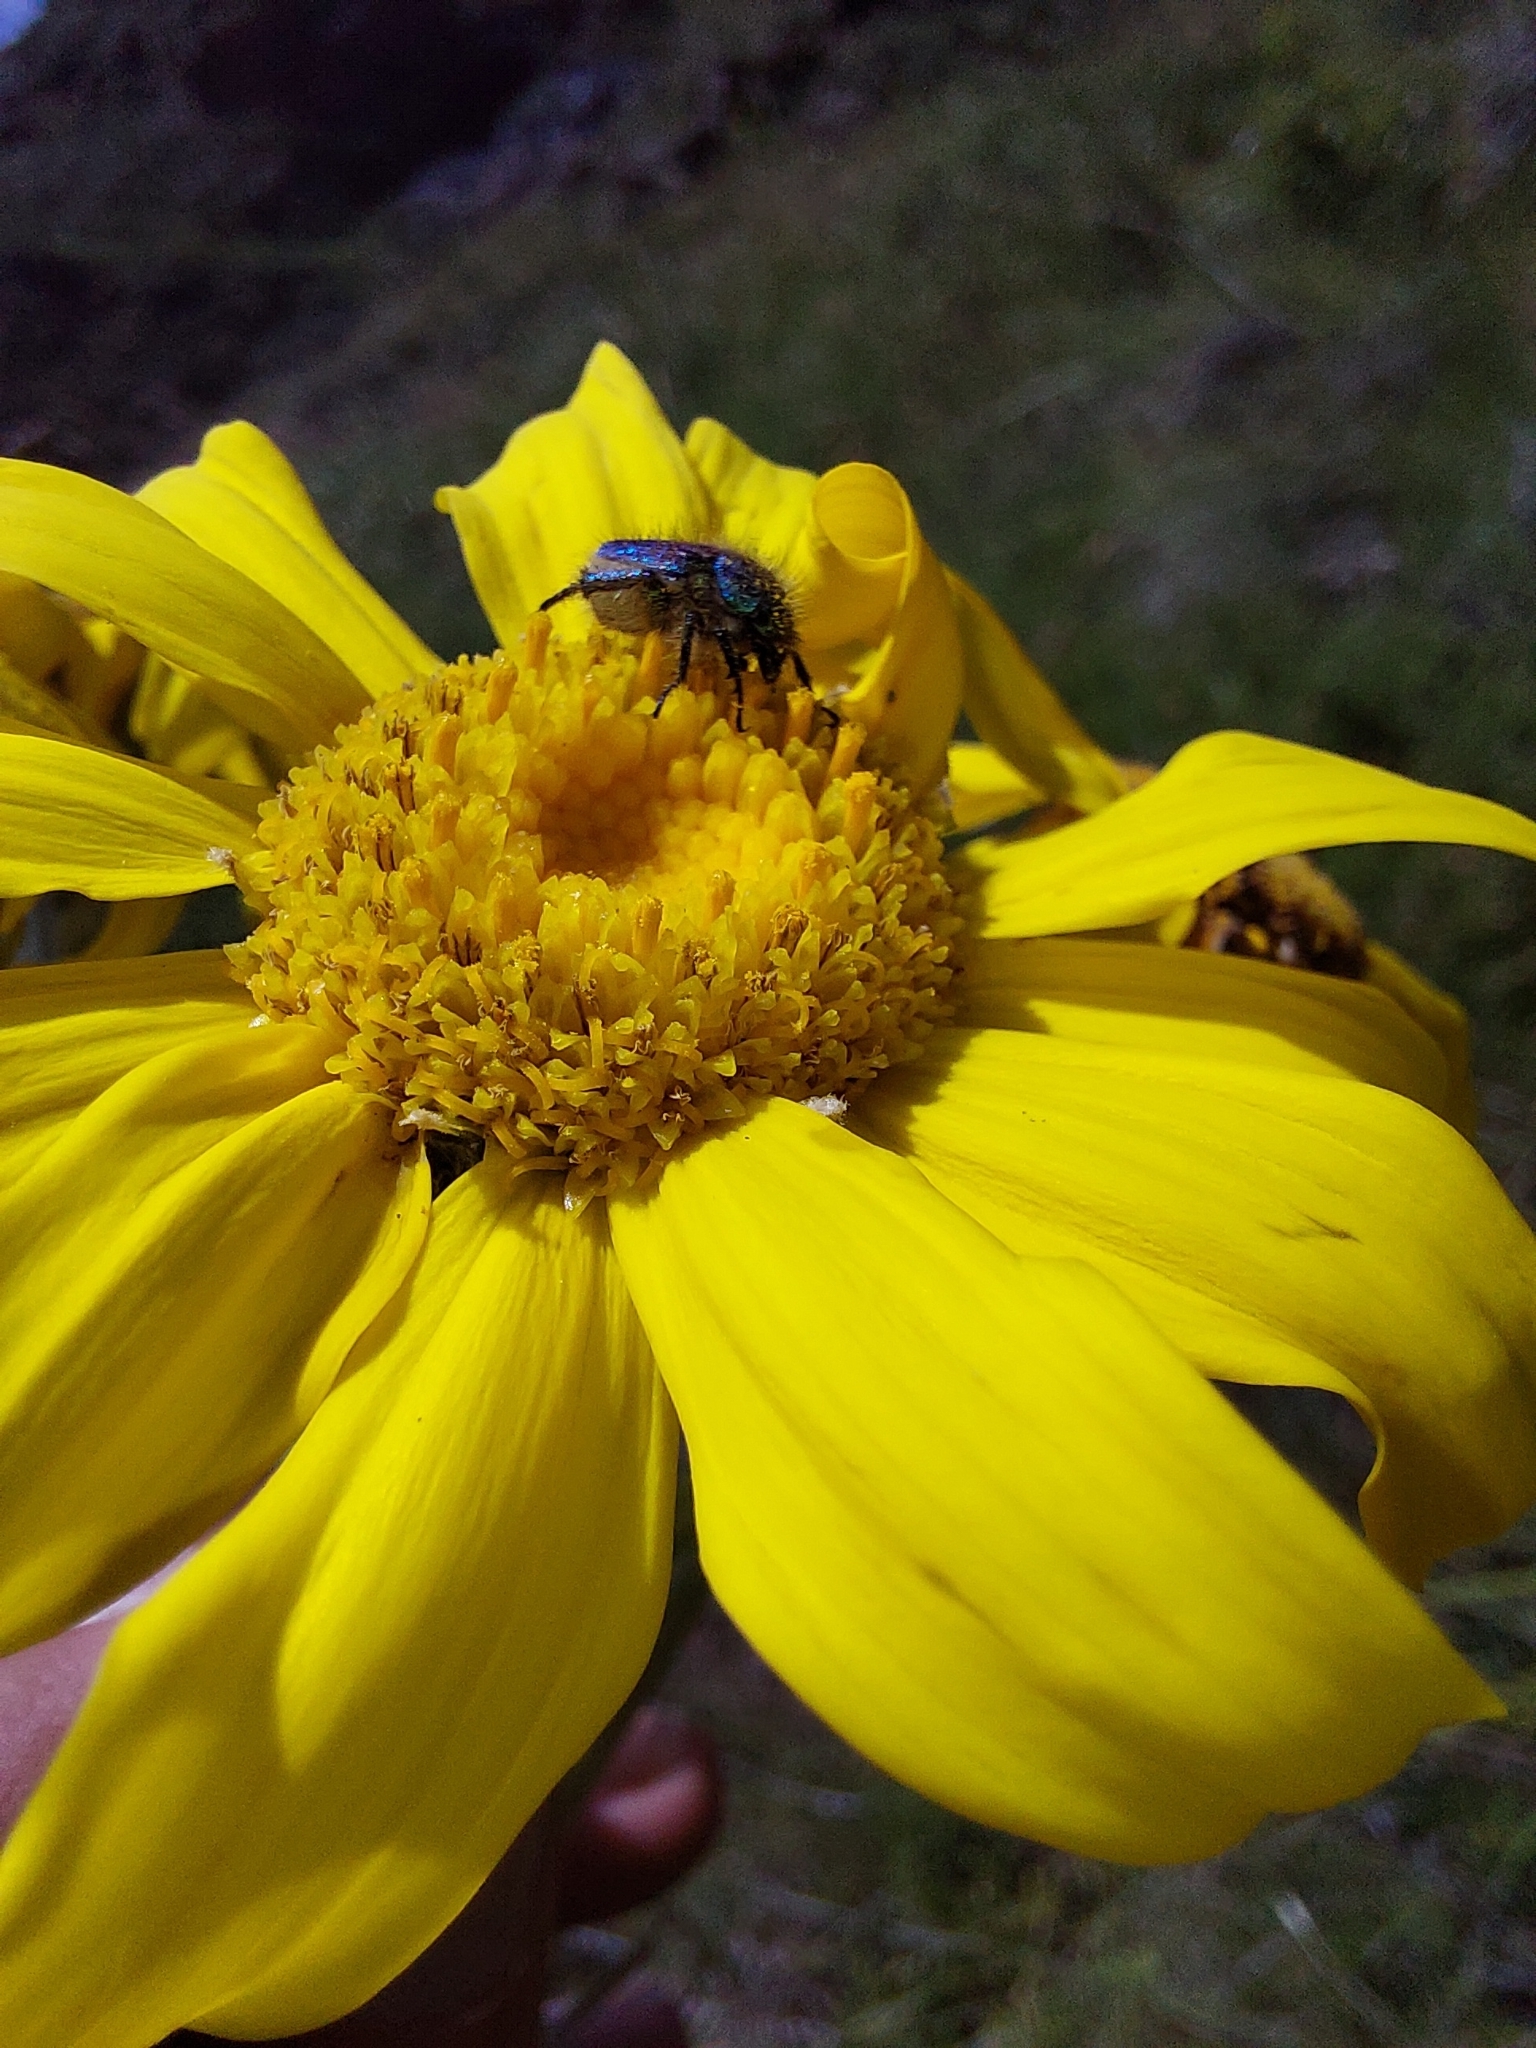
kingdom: Plantae
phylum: Tracheophyta
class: Magnoliopsida
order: Asterales
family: Asteraceae
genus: Senecio
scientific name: Senecio macrospermus
